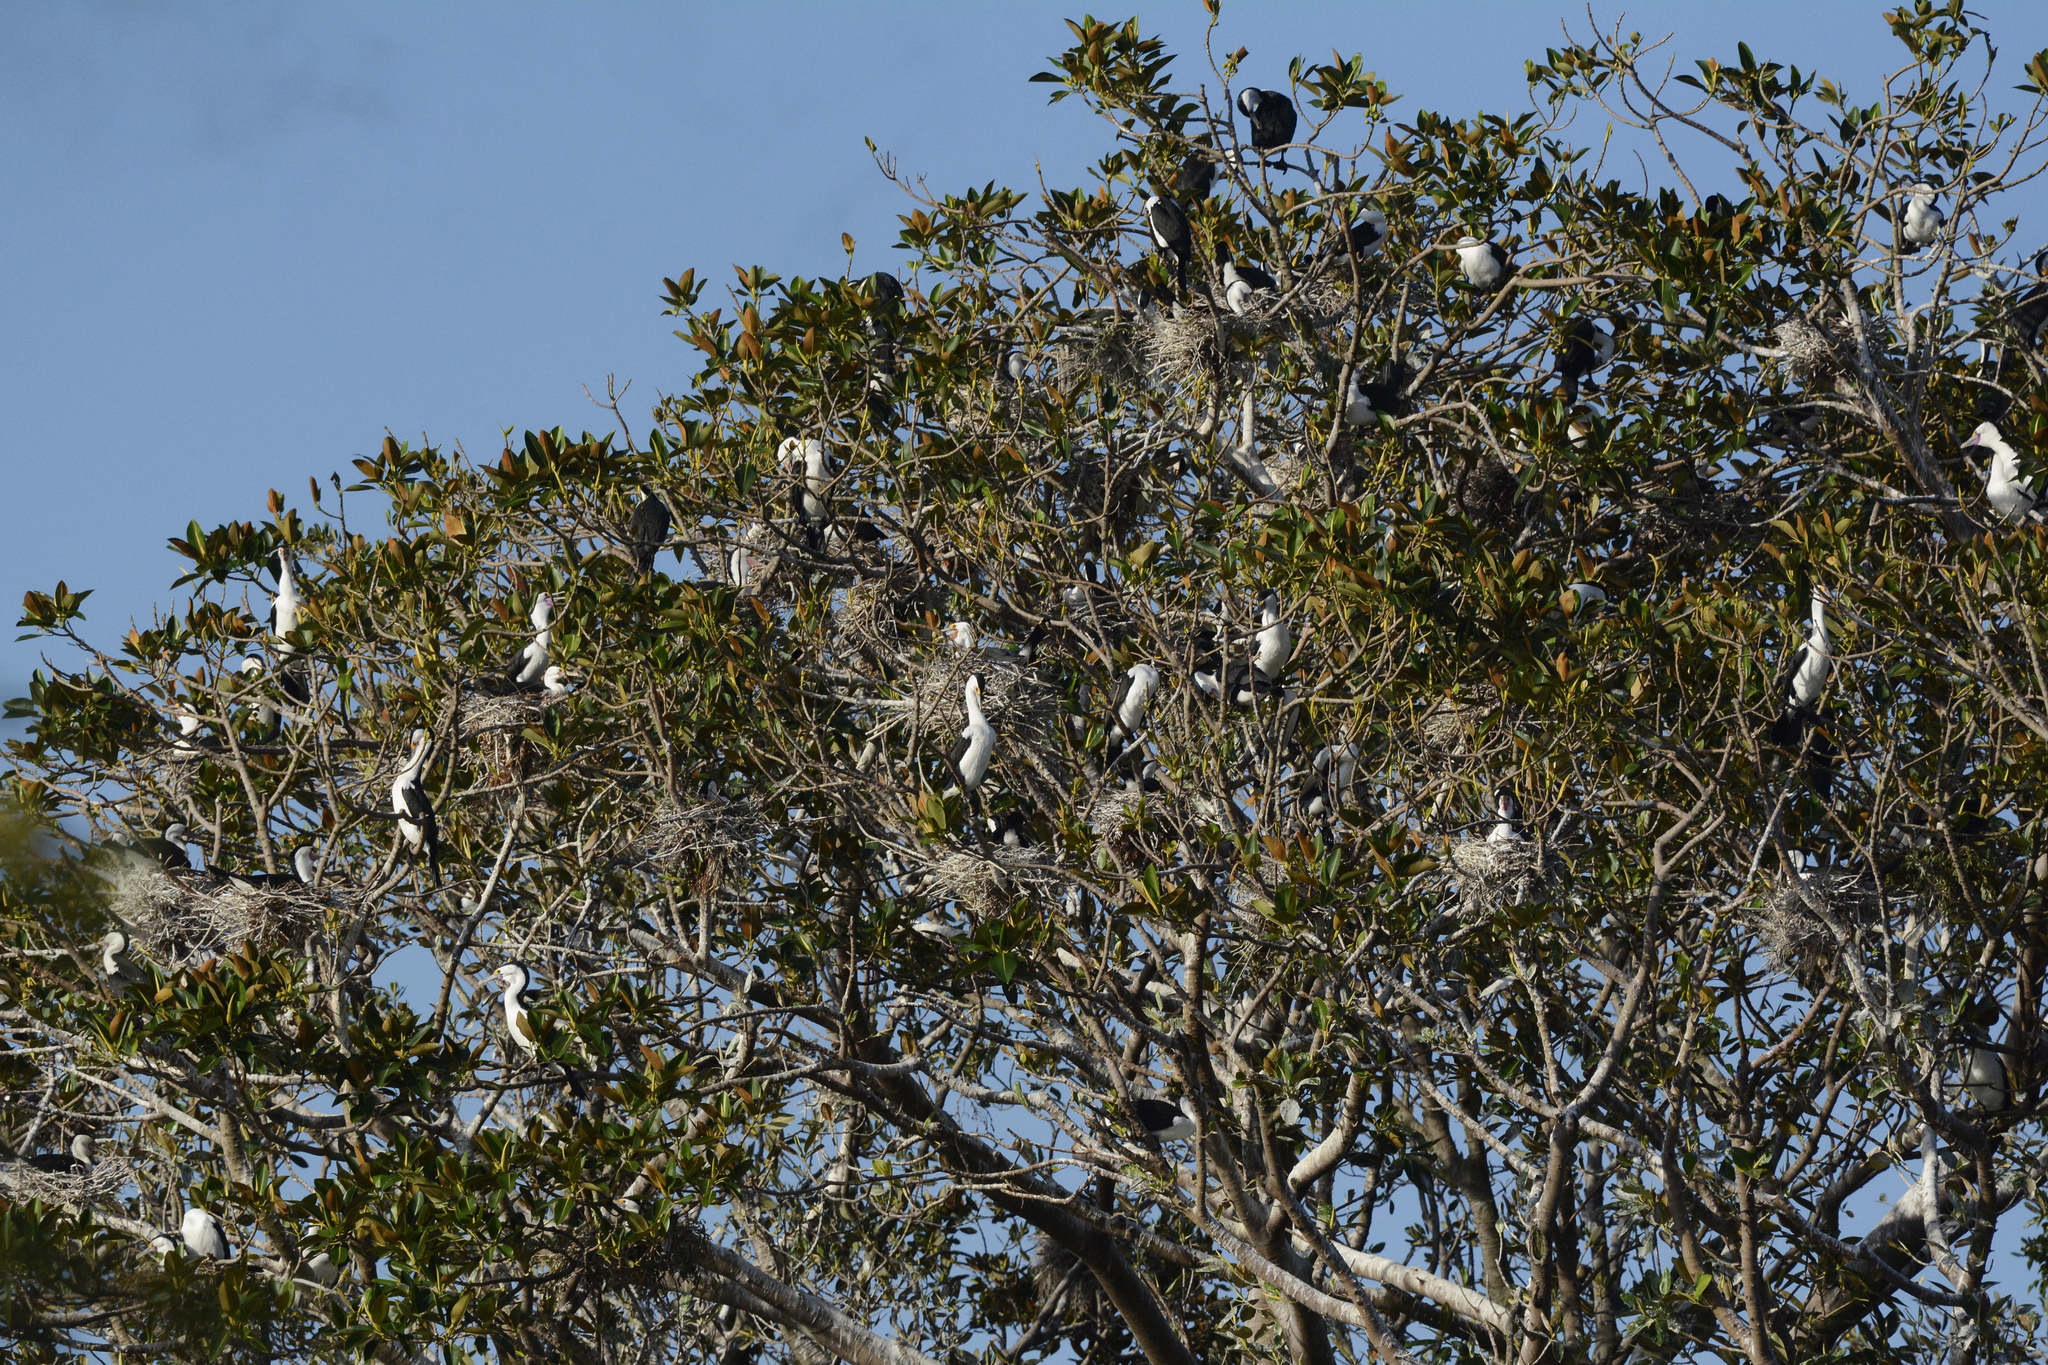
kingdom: Animalia
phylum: Chordata
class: Aves
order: Suliformes
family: Phalacrocoracidae
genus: Phalacrocorax
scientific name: Phalacrocorax varius
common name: Pied cormorant
